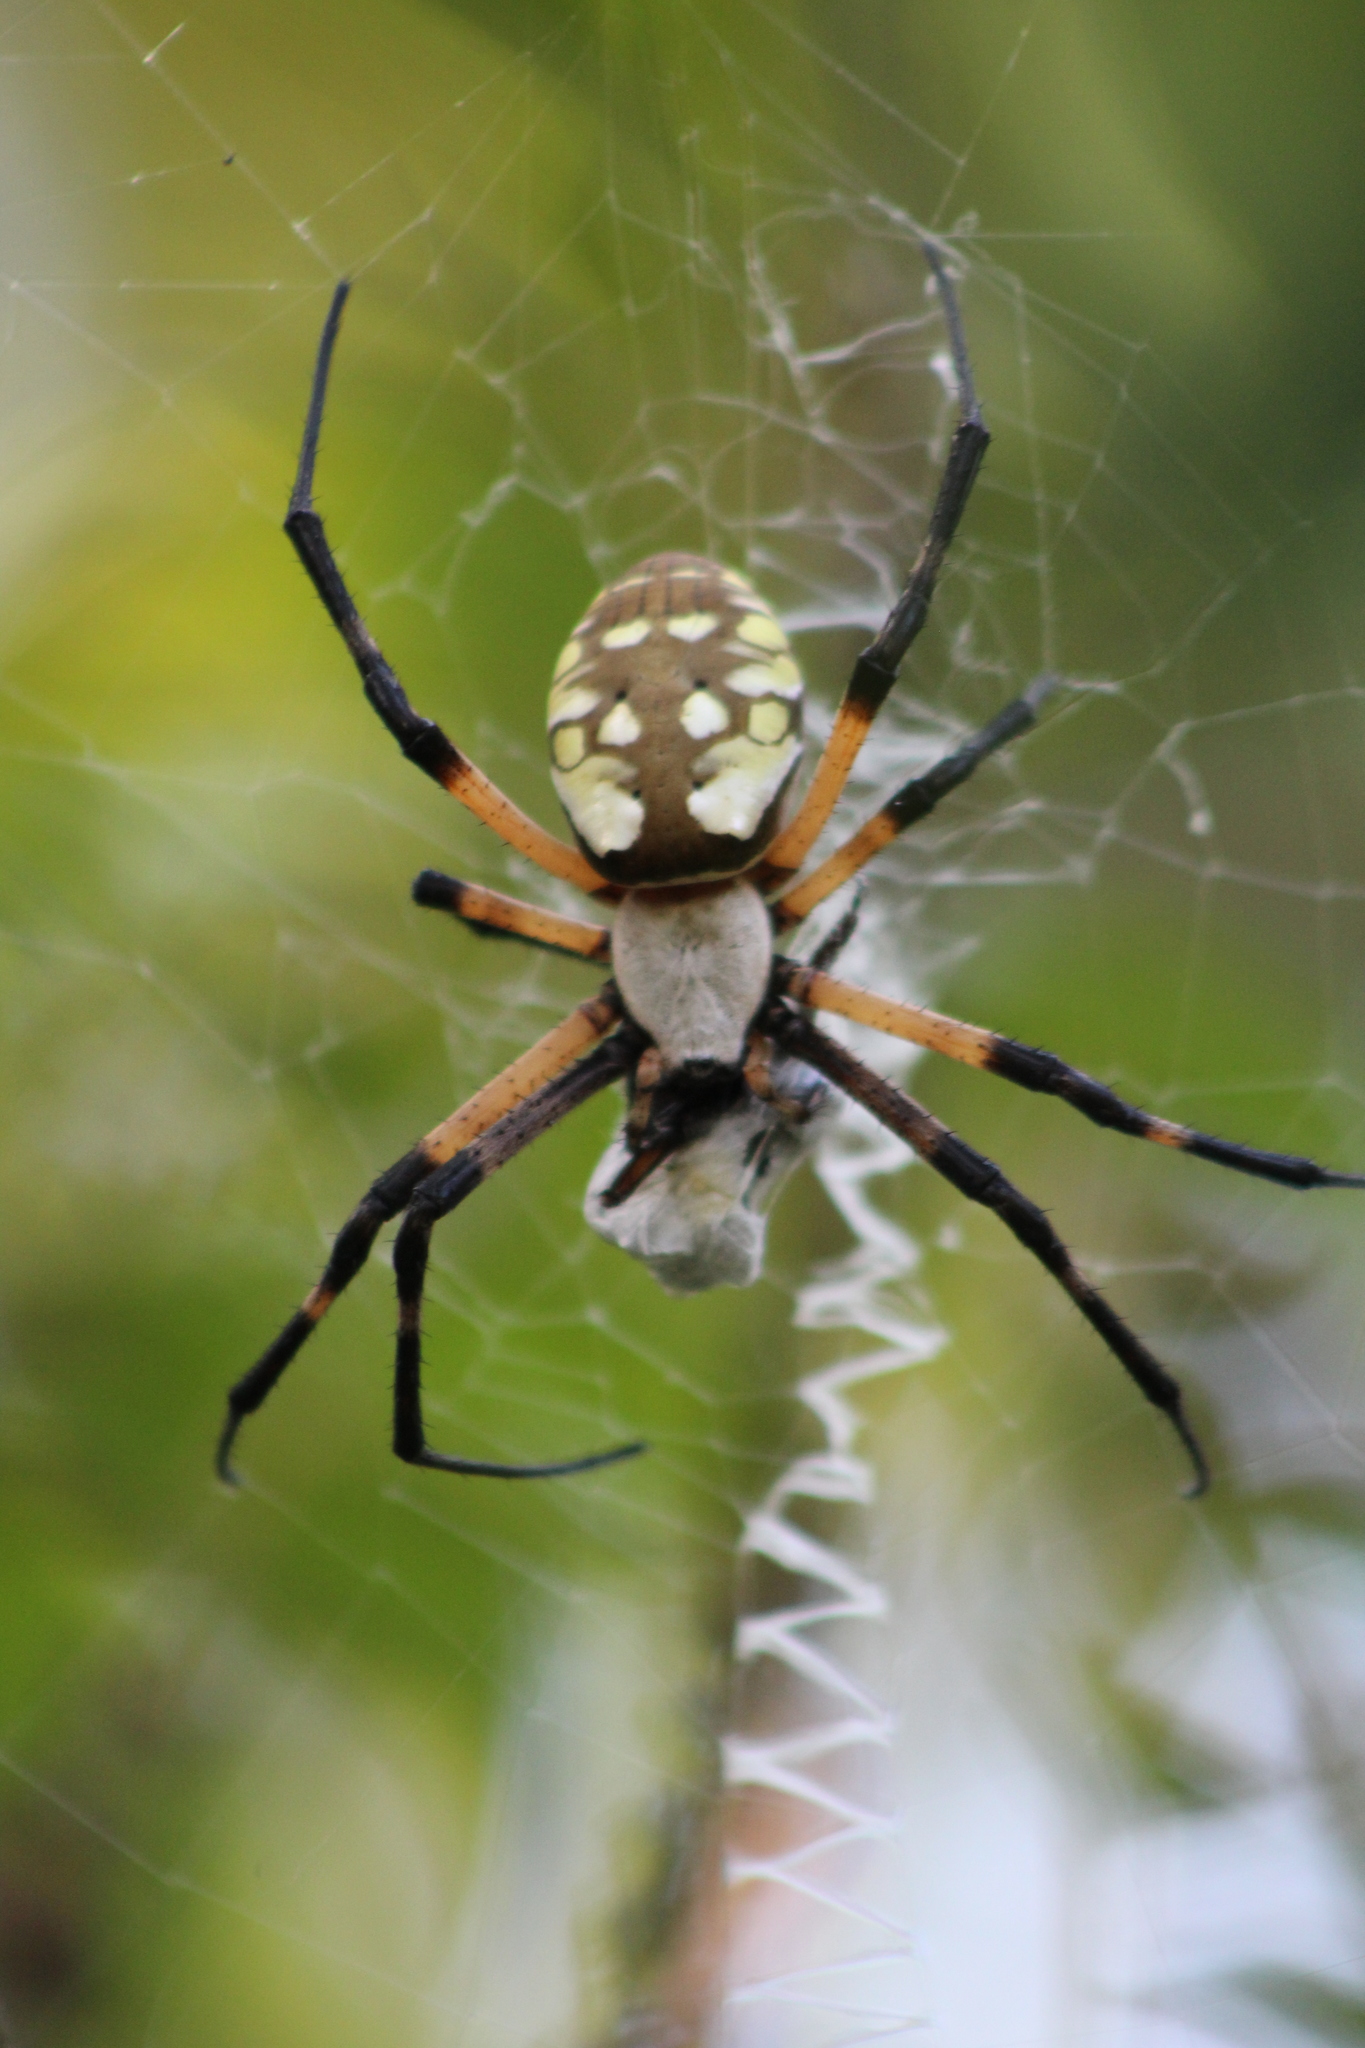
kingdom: Animalia
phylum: Arthropoda
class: Arachnida
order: Araneae
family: Araneidae
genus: Argiope
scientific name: Argiope aurantia
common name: Orb weavers
